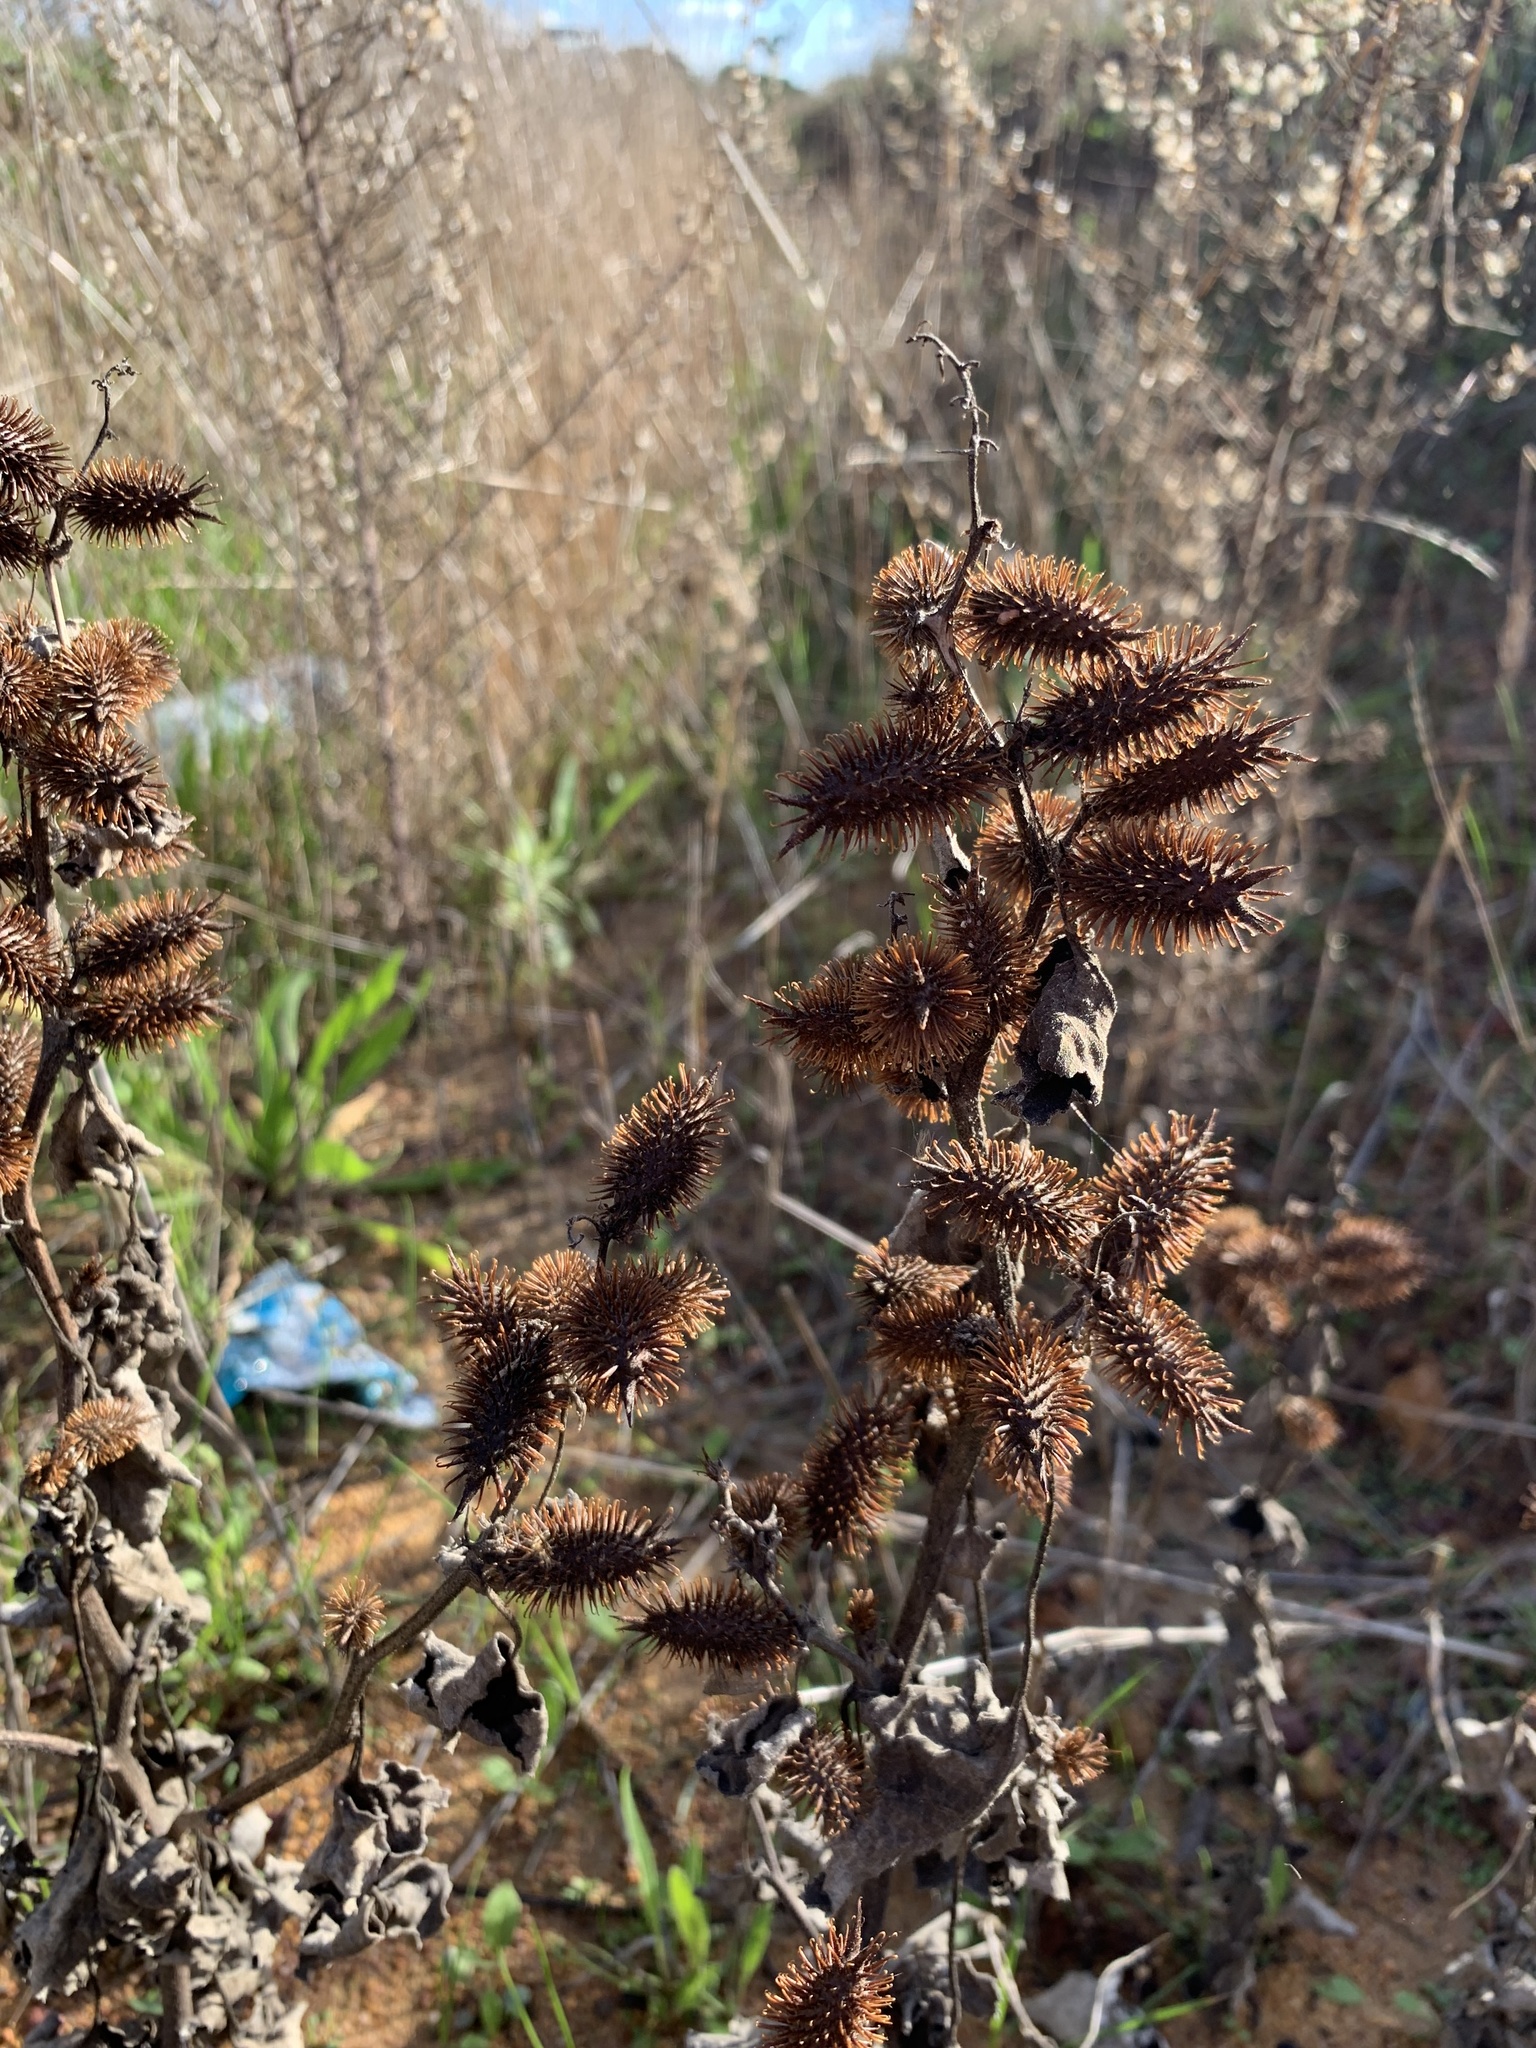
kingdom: Plantae
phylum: Tracheophyta
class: Magnoliopsida
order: Asterales
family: Asteraceae
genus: Xanthium
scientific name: Xanthium strumarium
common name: Rough cocklebur
